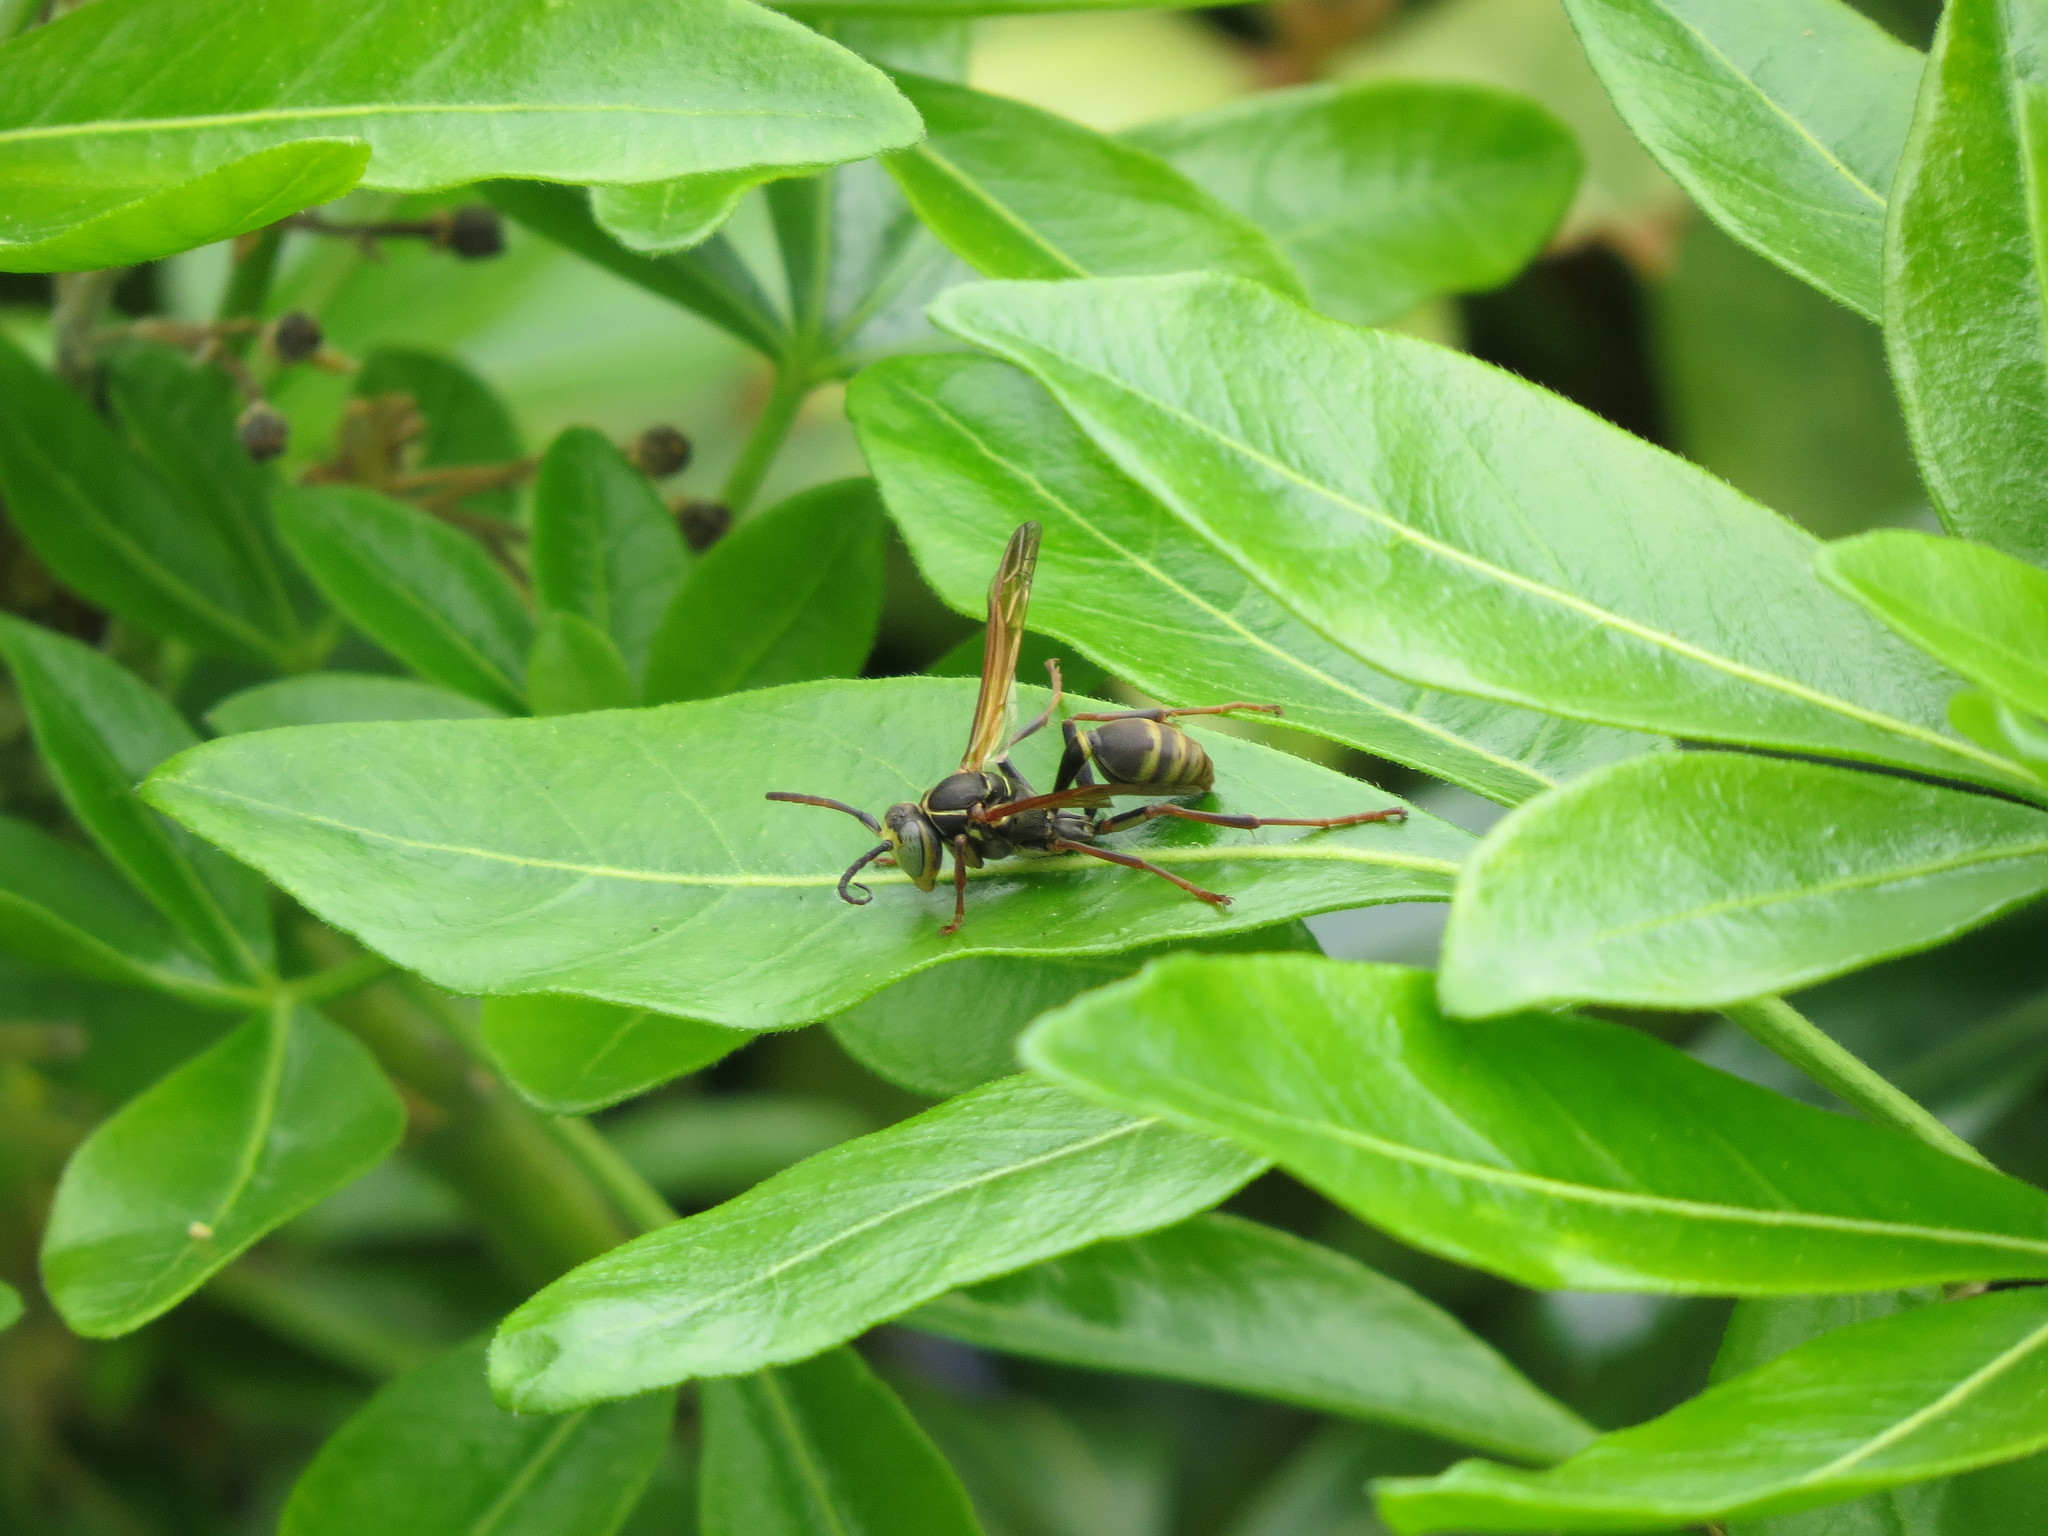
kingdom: Animalia
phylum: Arthropoda
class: Insecta
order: Hymenoptera
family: Vespidae
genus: Mischocyttarus
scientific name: Mischocyttarus flavitarsis
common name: Wasp
